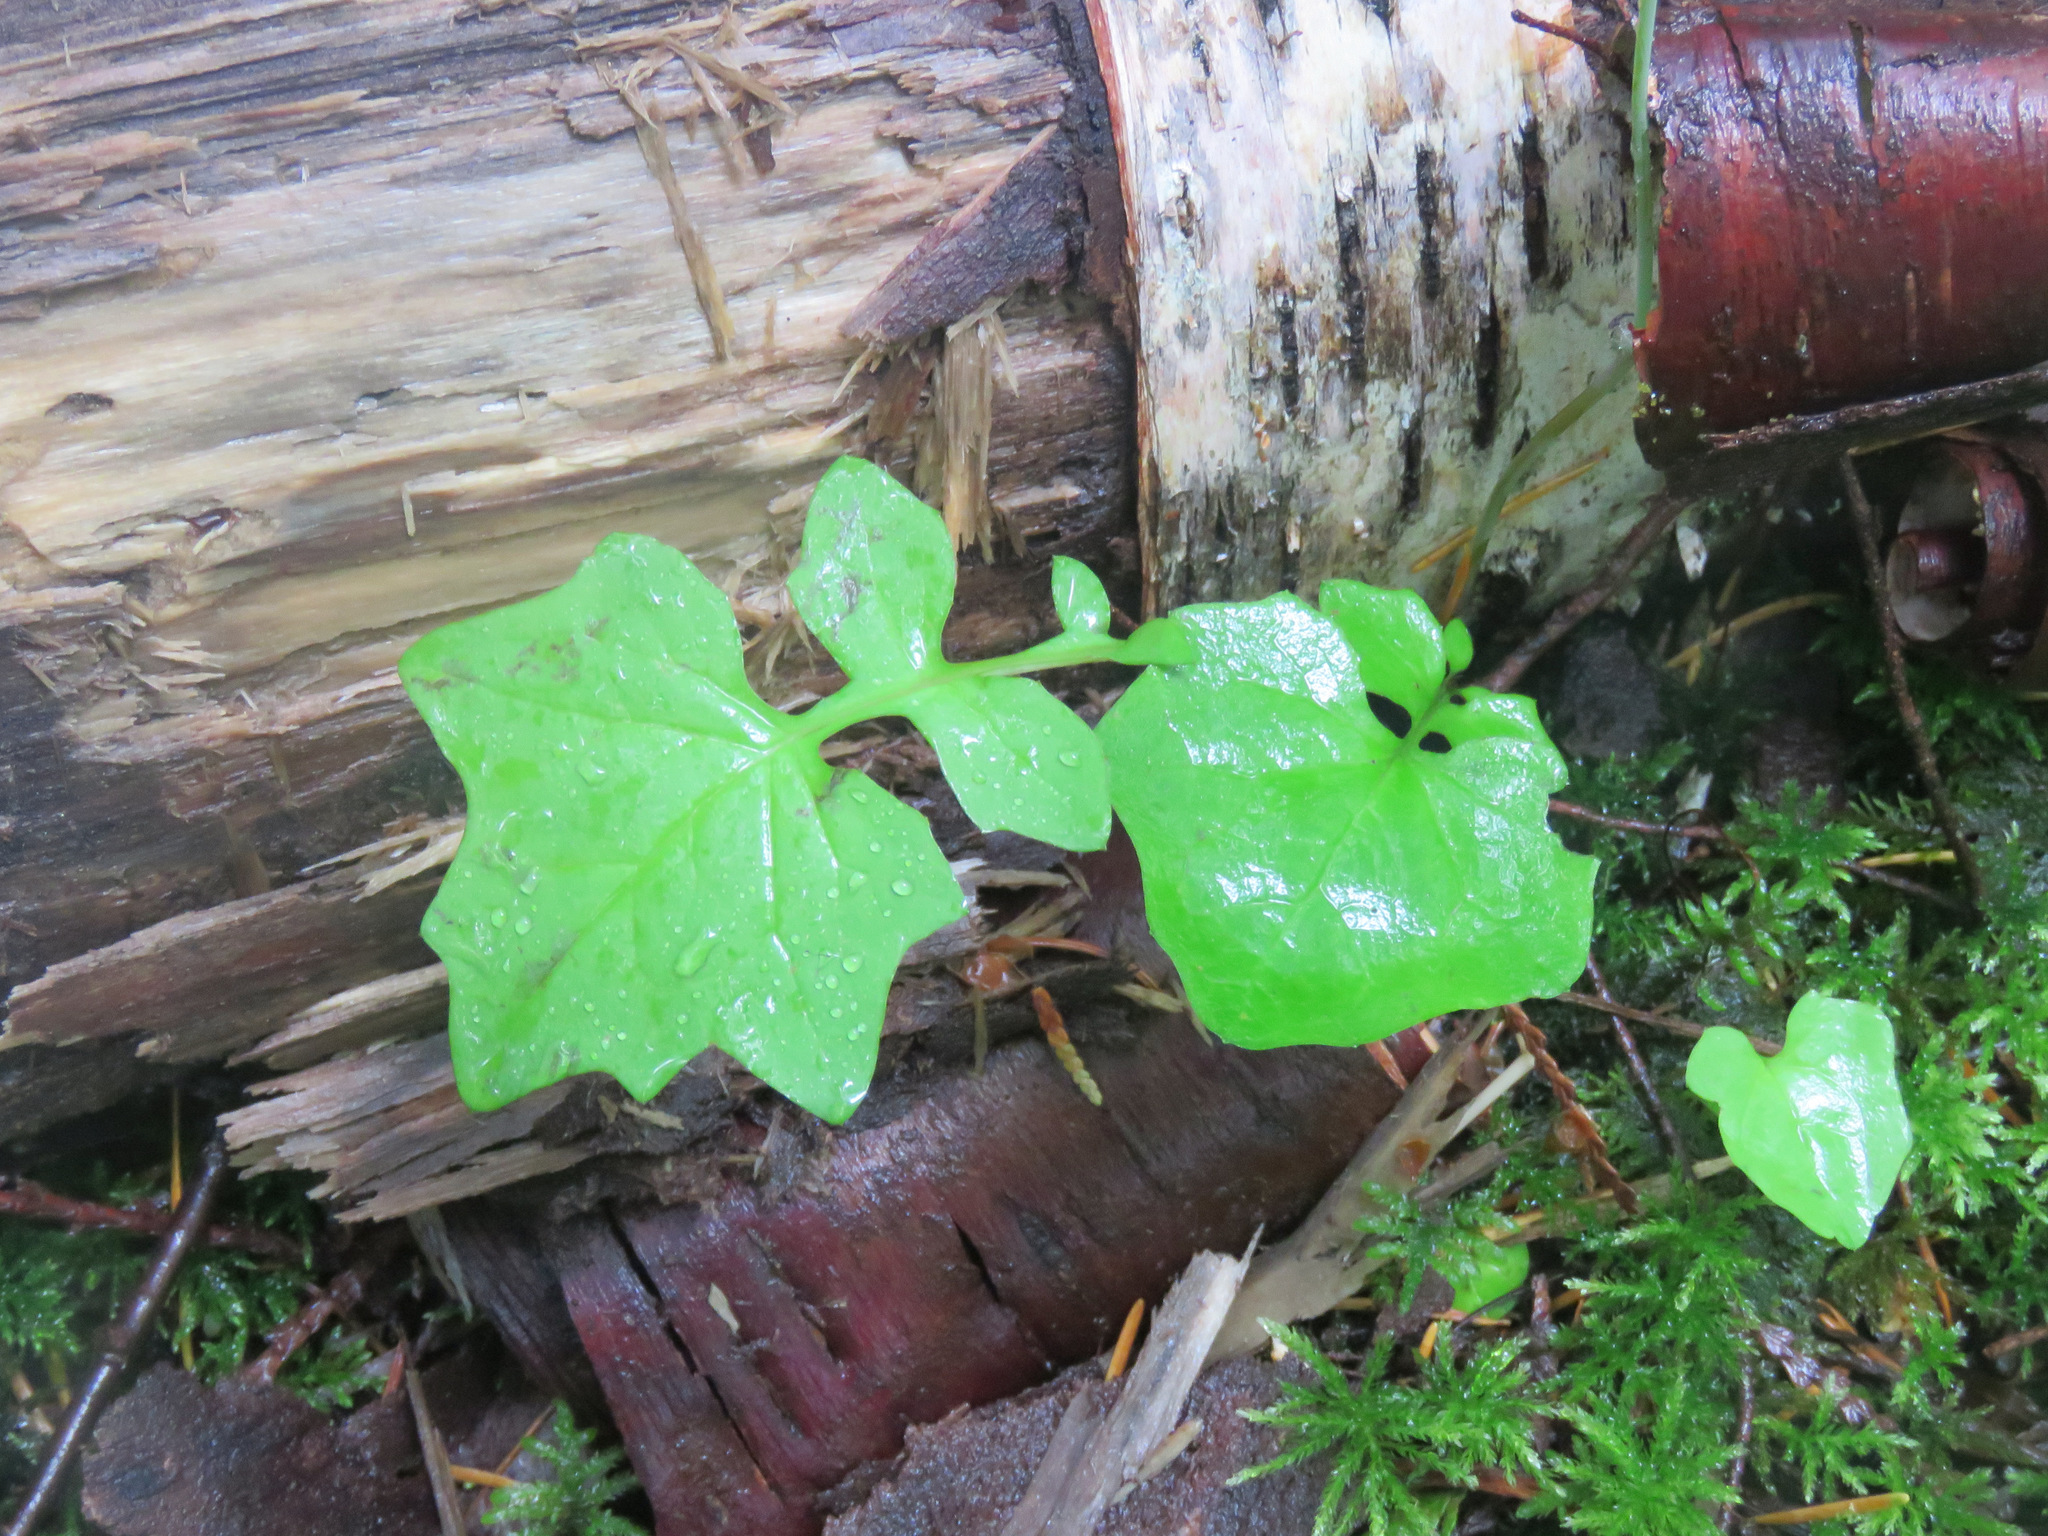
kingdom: Plantae
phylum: Tracheophyta
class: Magnoliopsida
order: Asterales
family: Asteraceae
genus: Mycelis
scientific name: Mycelis muralis
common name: Wall lettuce
